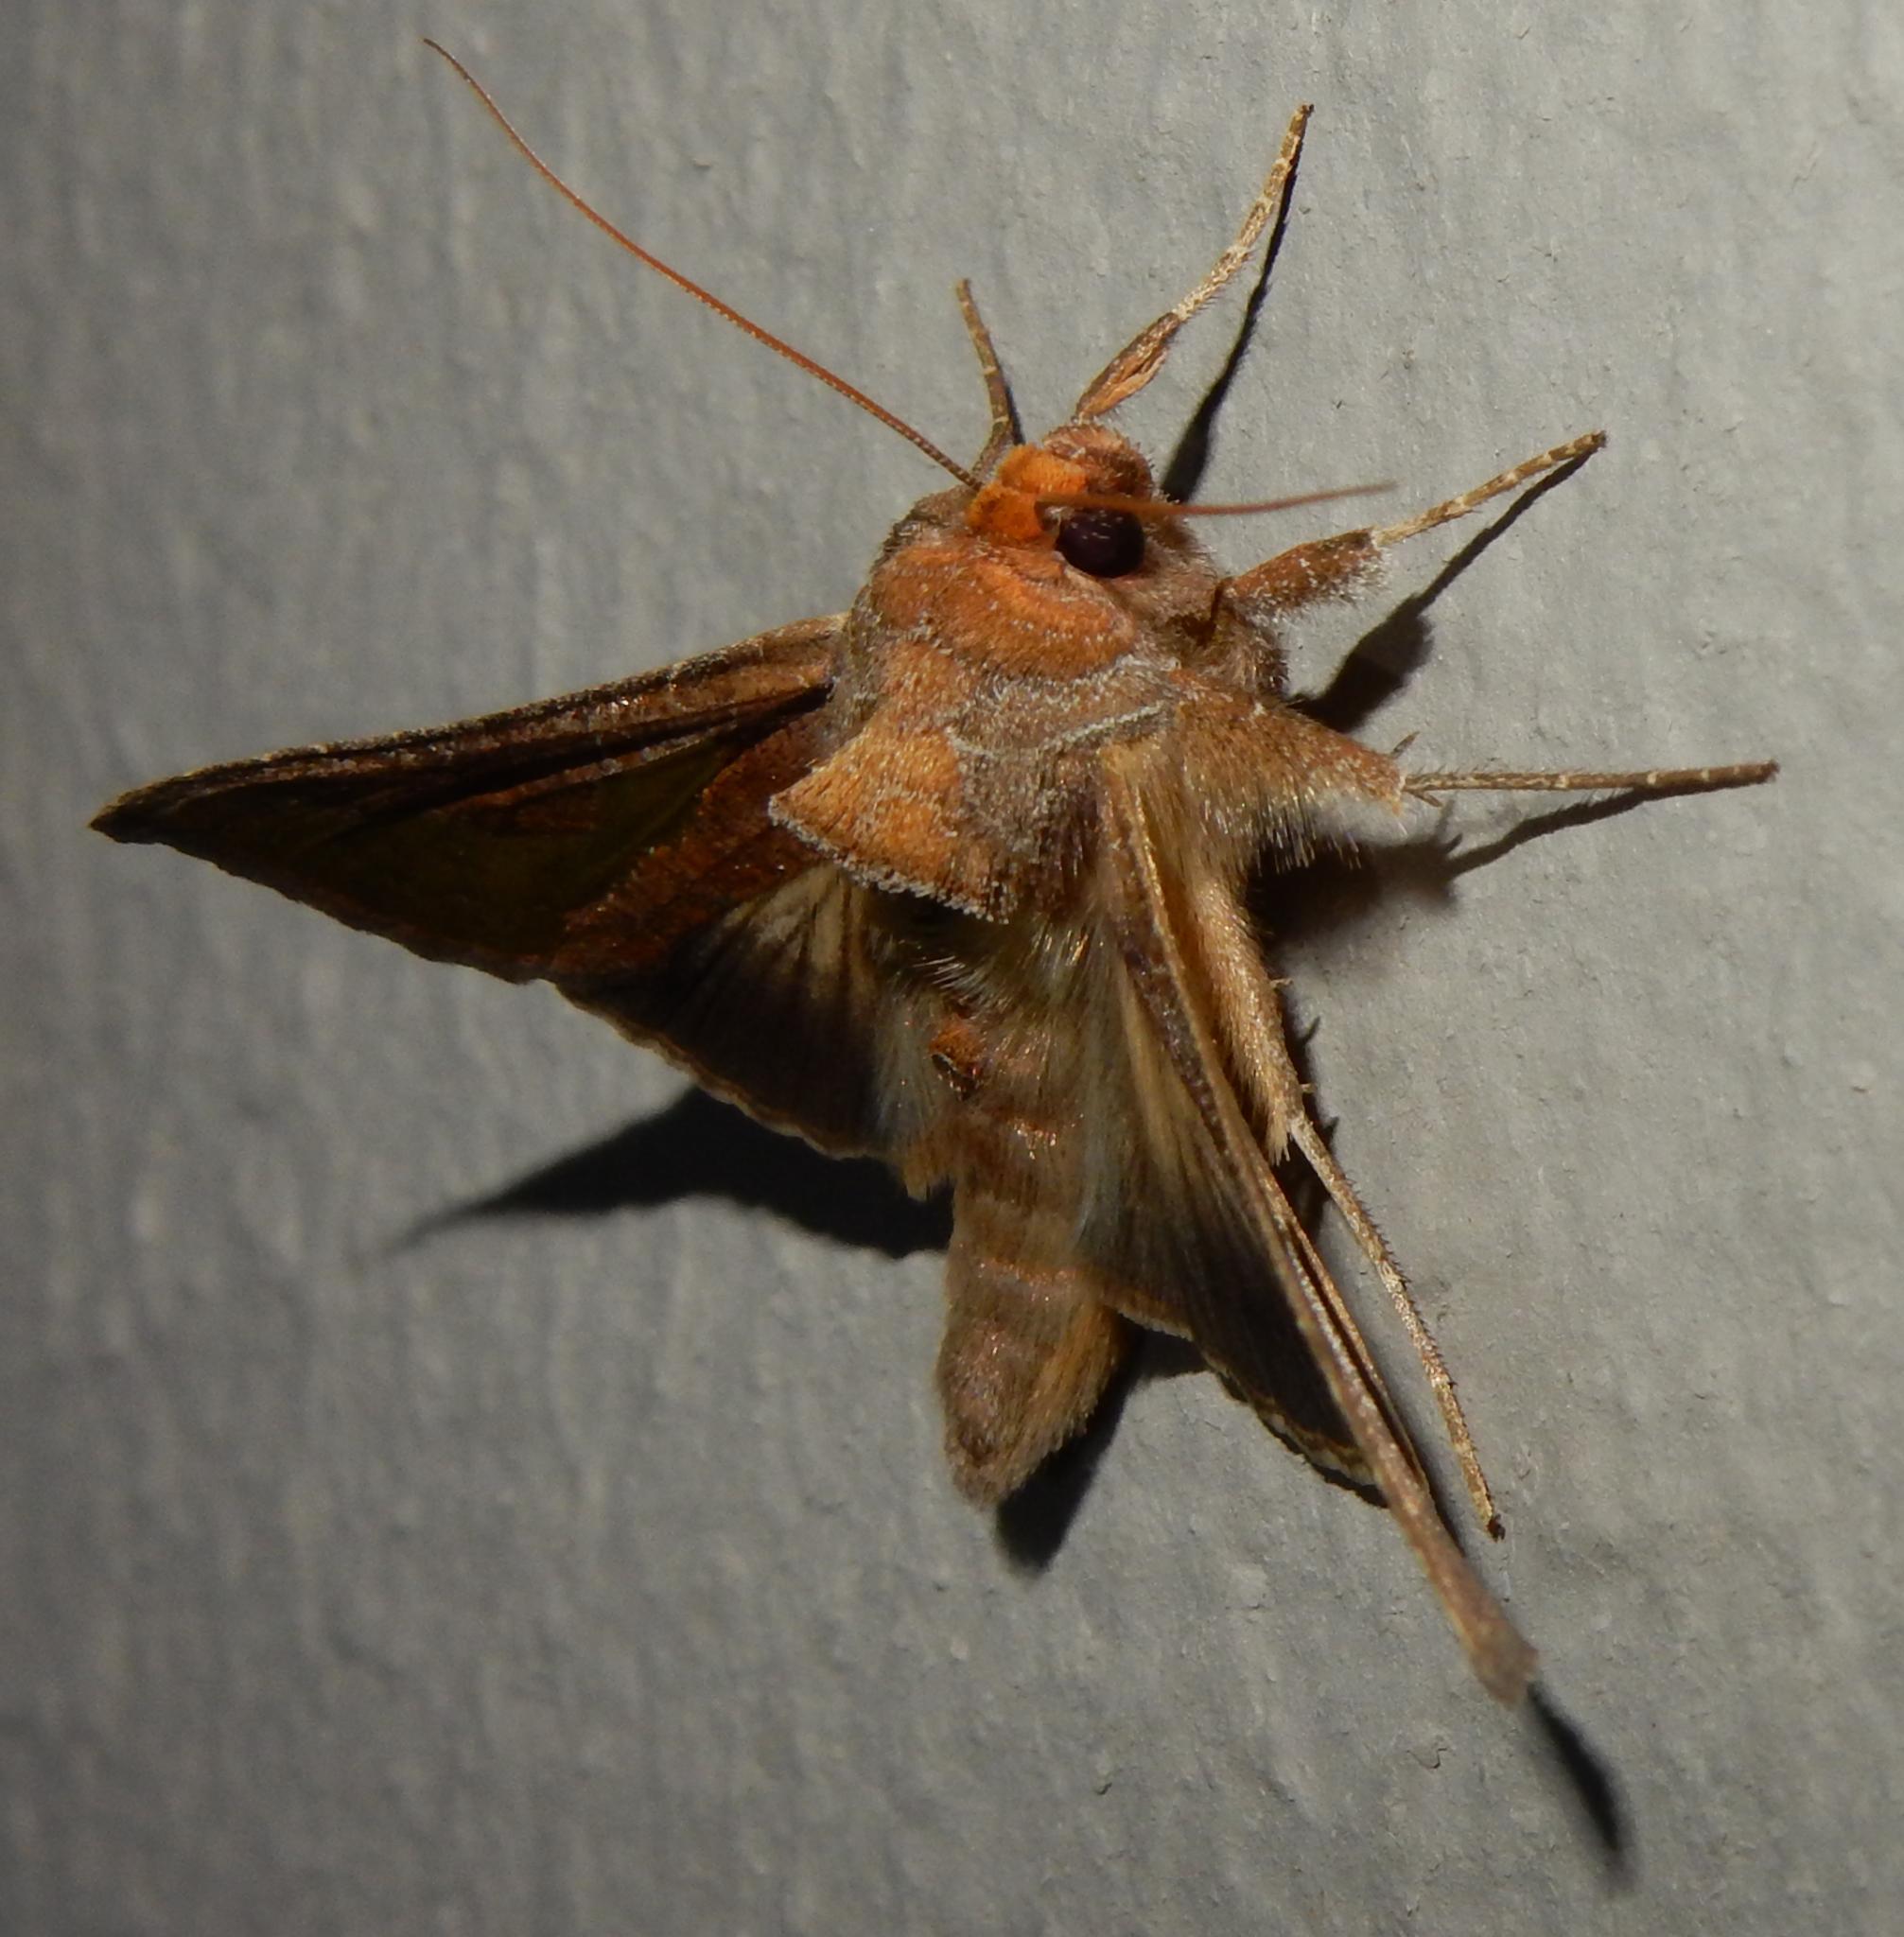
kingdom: Animalia
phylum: Arthropoda
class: Insecta
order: Lepidoptera
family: Noctuidae
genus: Thysanoplusia
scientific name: Thysanoplusia orichalcea
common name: Slender burnished brass, golden plusia
